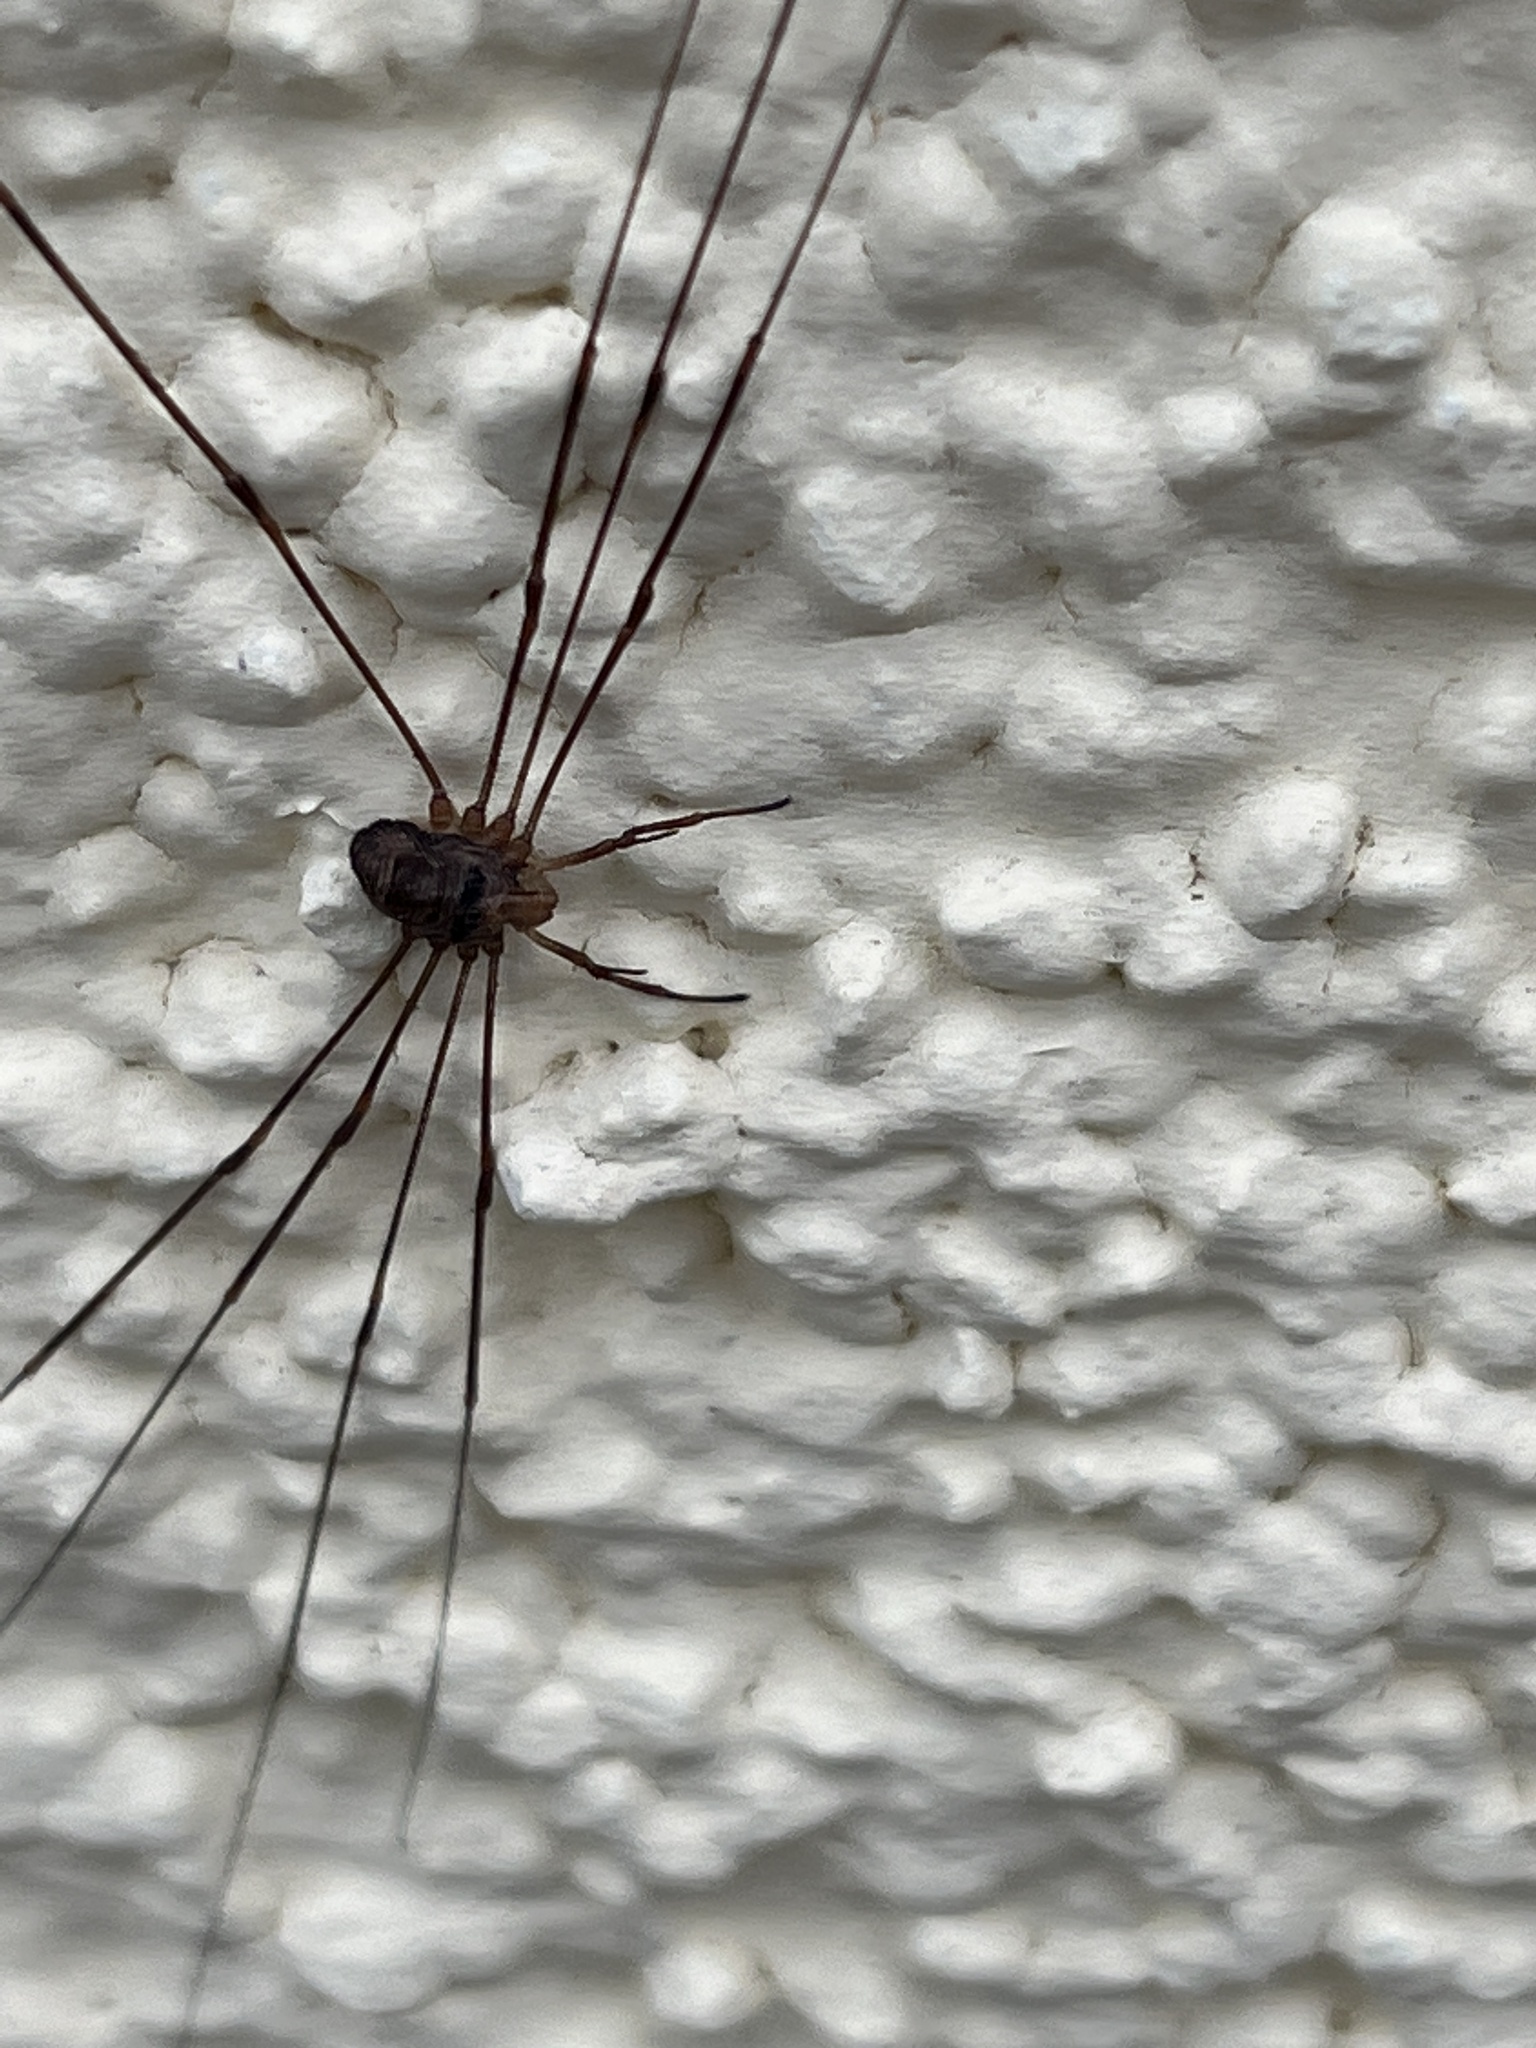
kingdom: Animalia
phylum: Arthropoda
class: Arachnida
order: Opiliones
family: Phalangiidae
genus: Dicranopalpus
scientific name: Dicranopalpus ramosus
